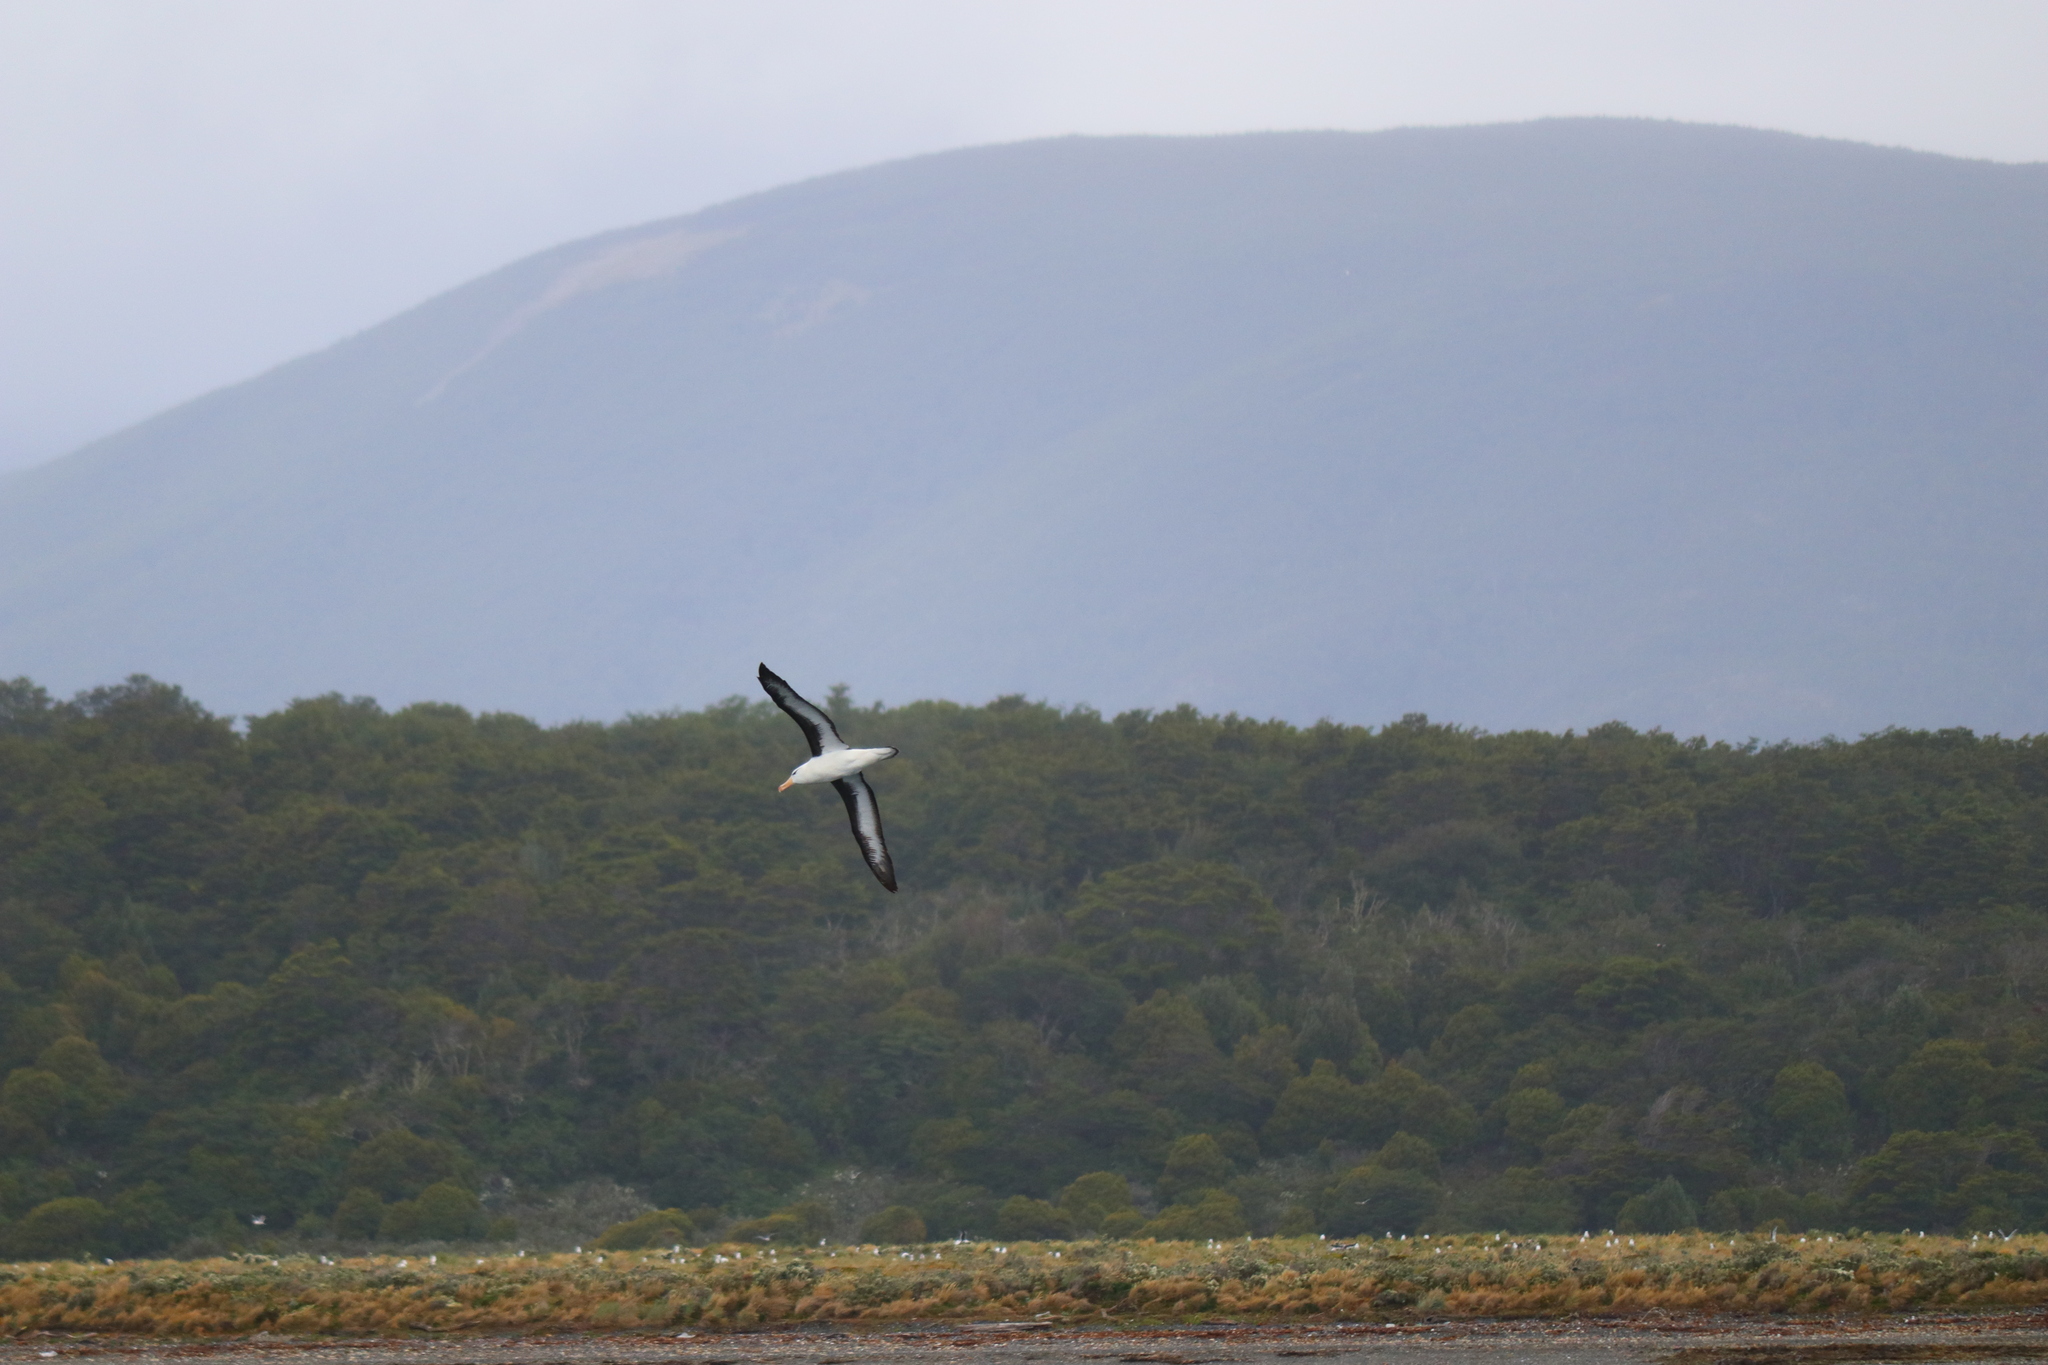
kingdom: Animalia
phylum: Chordata
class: Aves
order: Procellariiformes
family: Diomedeidae
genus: Thalassarche
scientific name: Thalassarche melanophris
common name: Black-browed albatross
